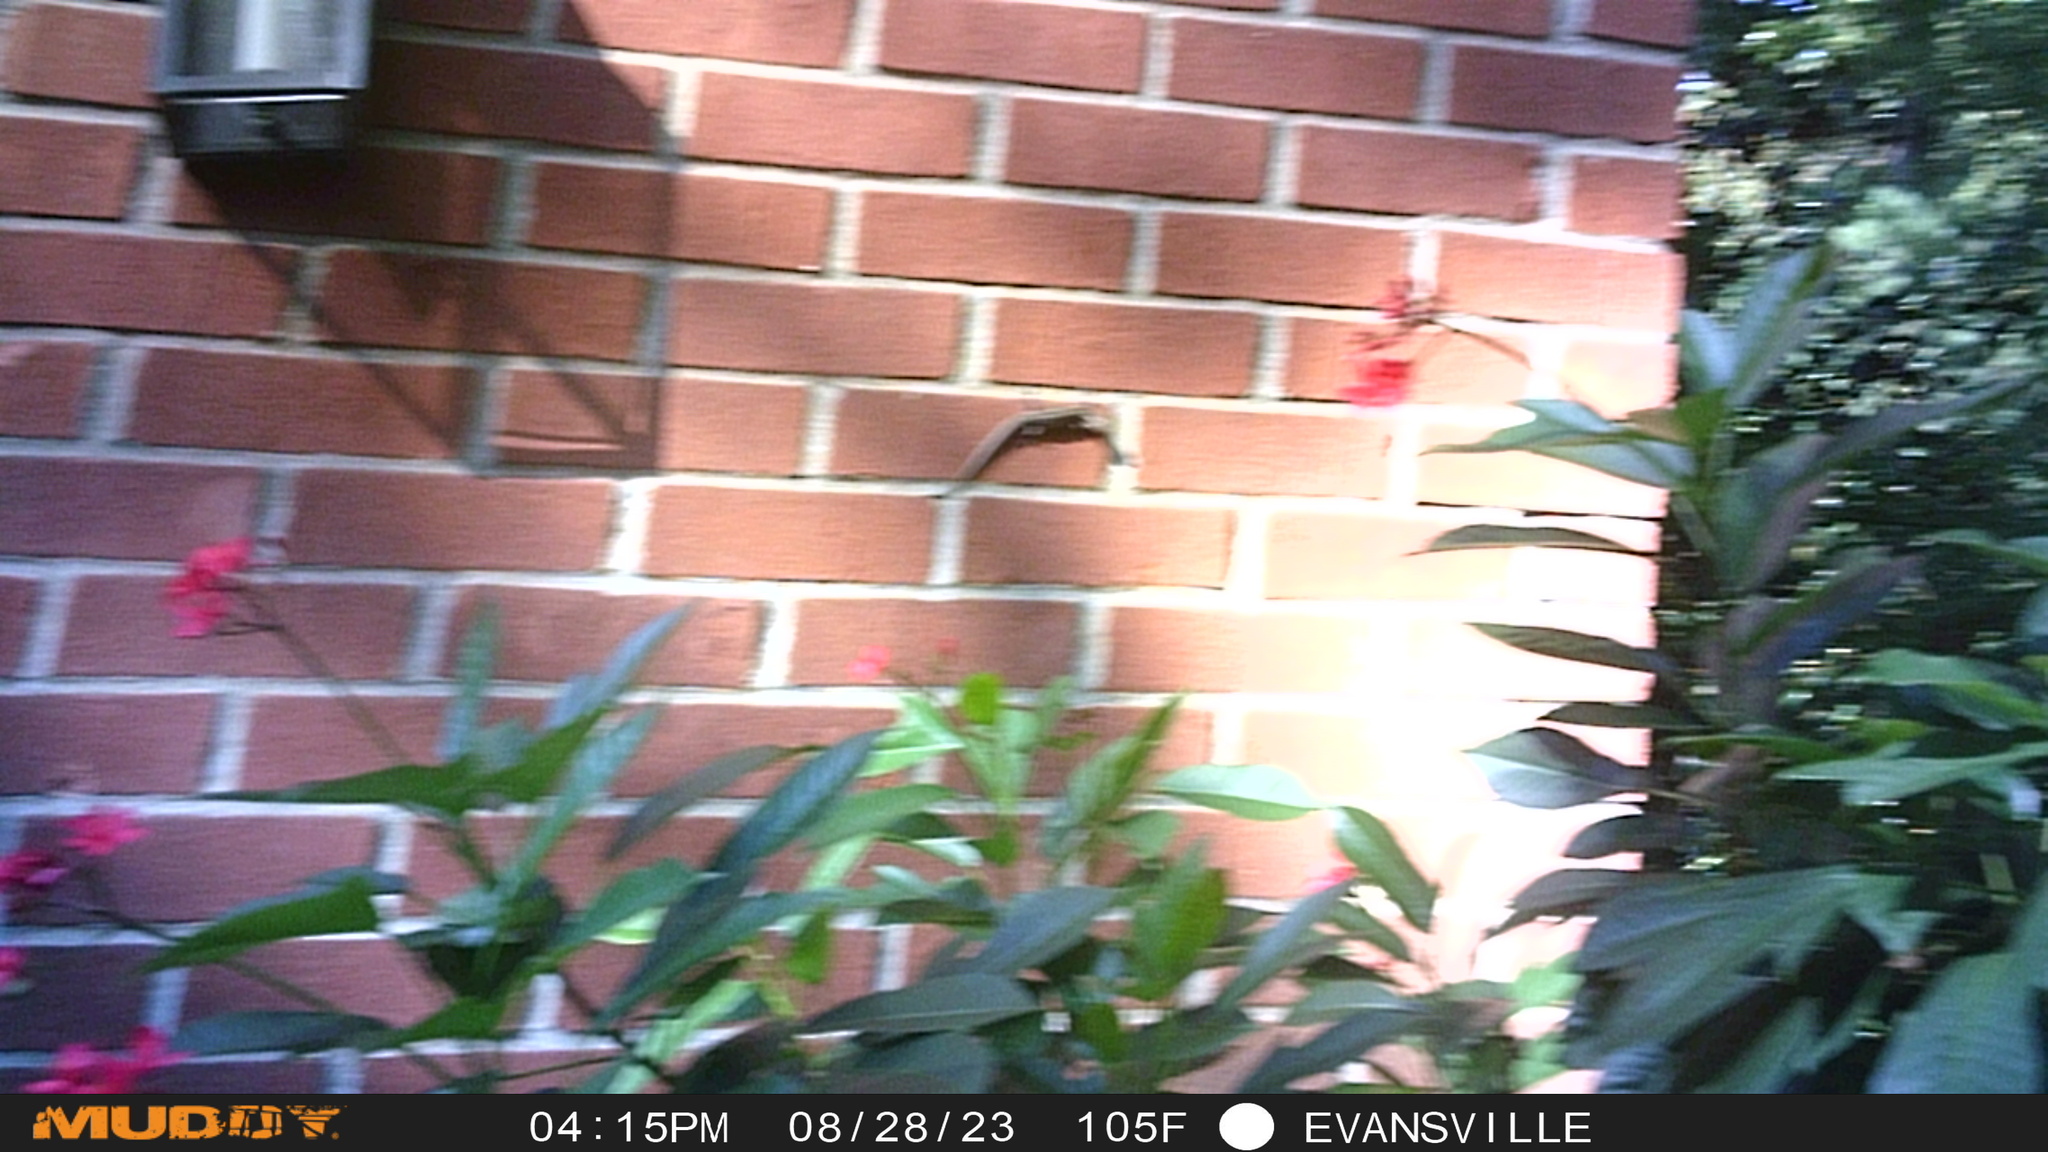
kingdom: Animalia
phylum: Chordata
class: Squamata
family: Scincidae
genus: Plestiodon
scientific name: Plestiodon fasciatus
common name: Five-lined skink
